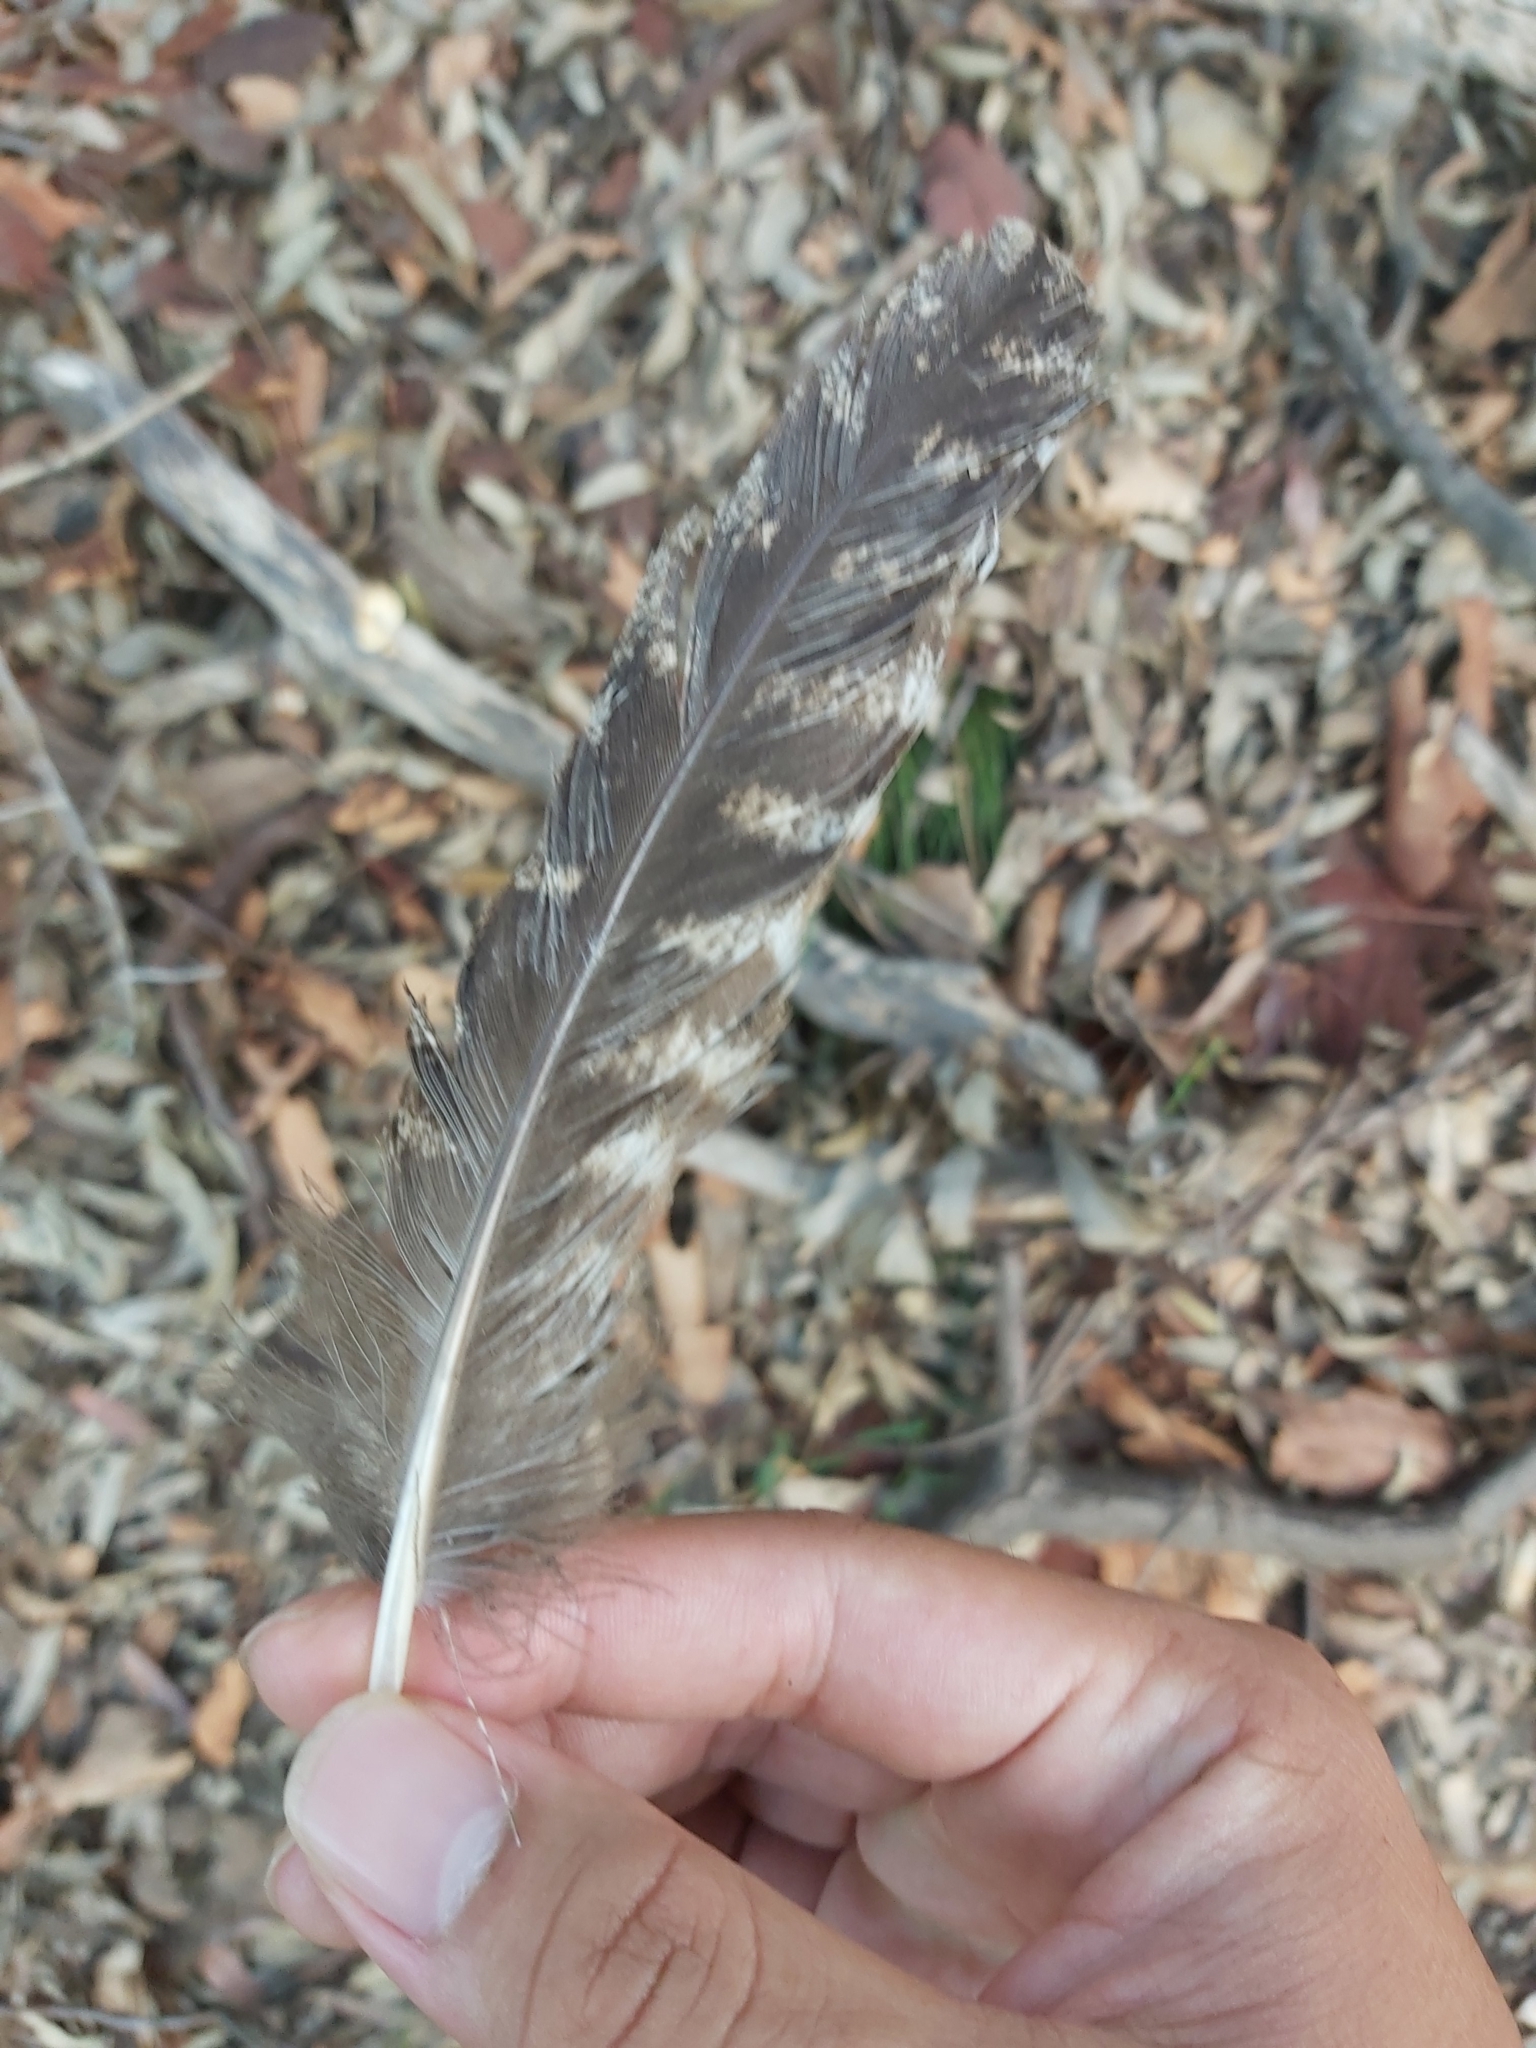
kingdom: Animalia
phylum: Chordata
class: Aves
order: Caprimulgiformes
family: Podargidae
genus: Podargus
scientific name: Podargus strigoides
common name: Tawny frogmouth
